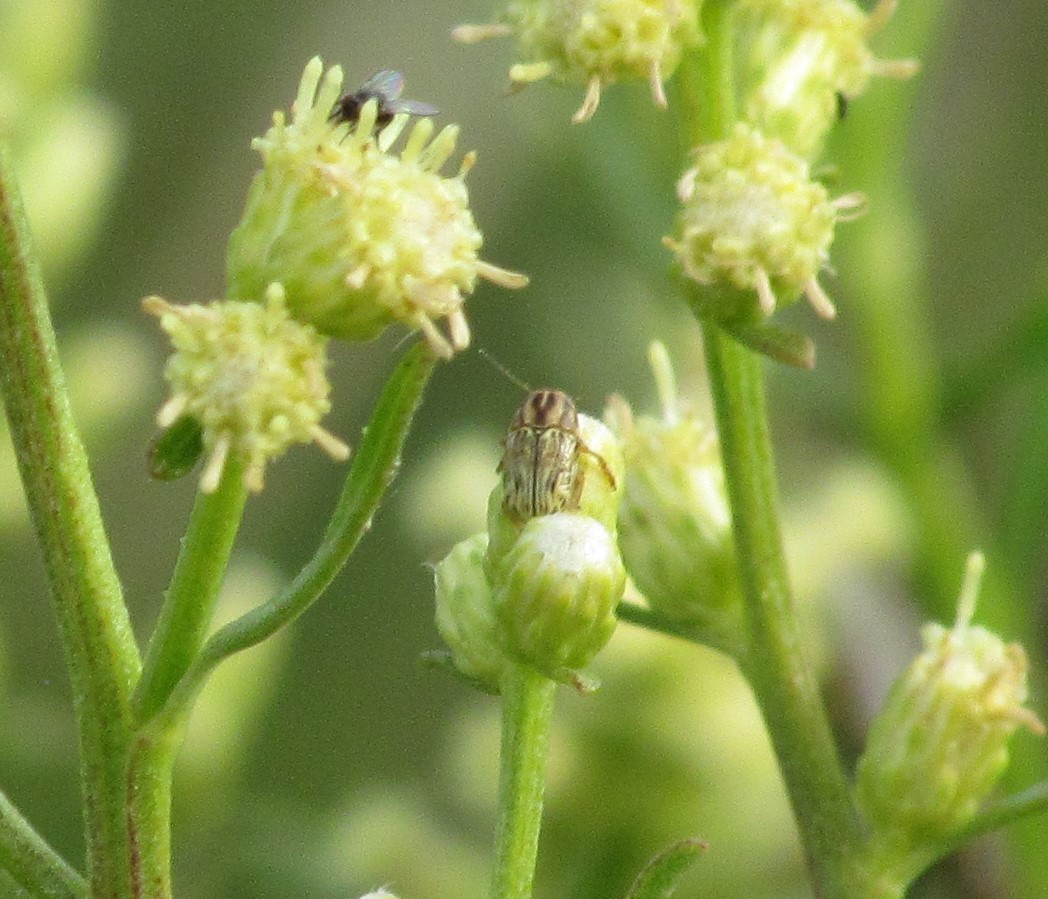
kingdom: Animalia
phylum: Arthropoda
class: Insecta
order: Coleoptera
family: Chrysomelidae
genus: Pachybrachis
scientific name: Pachybrachis
